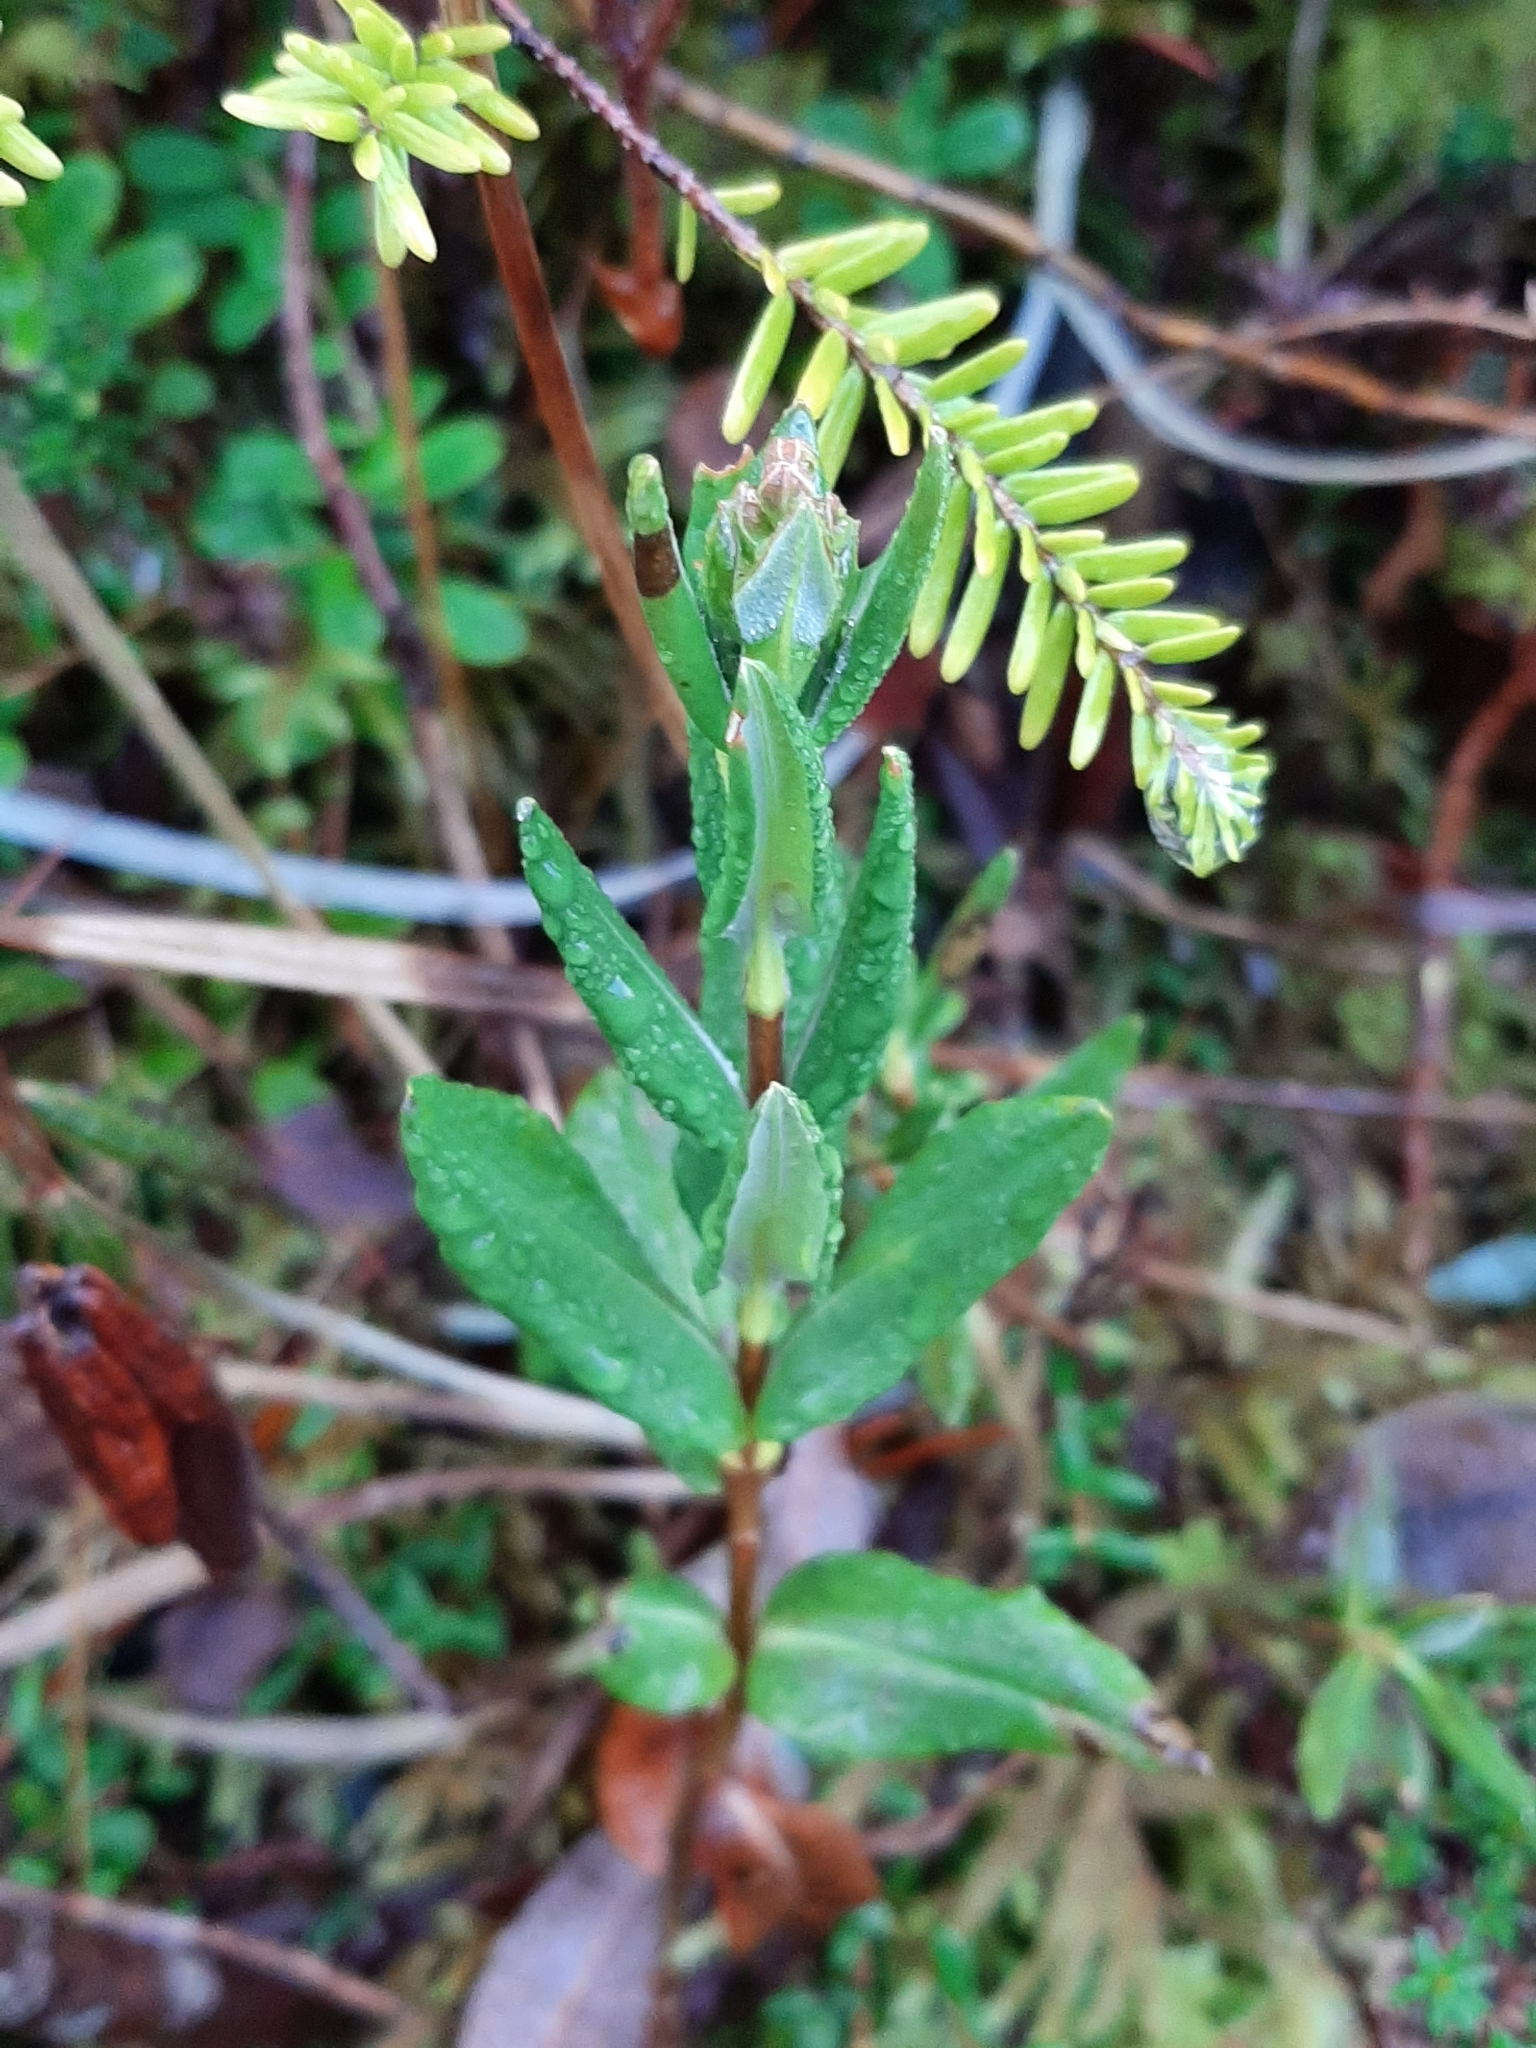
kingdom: Plantae
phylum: Tracheophyta
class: Magnoliopsida
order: Ericales
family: Ericaceae
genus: Rhododendron
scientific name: Rhododendron groenlandicum
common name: Bog labrador tea
